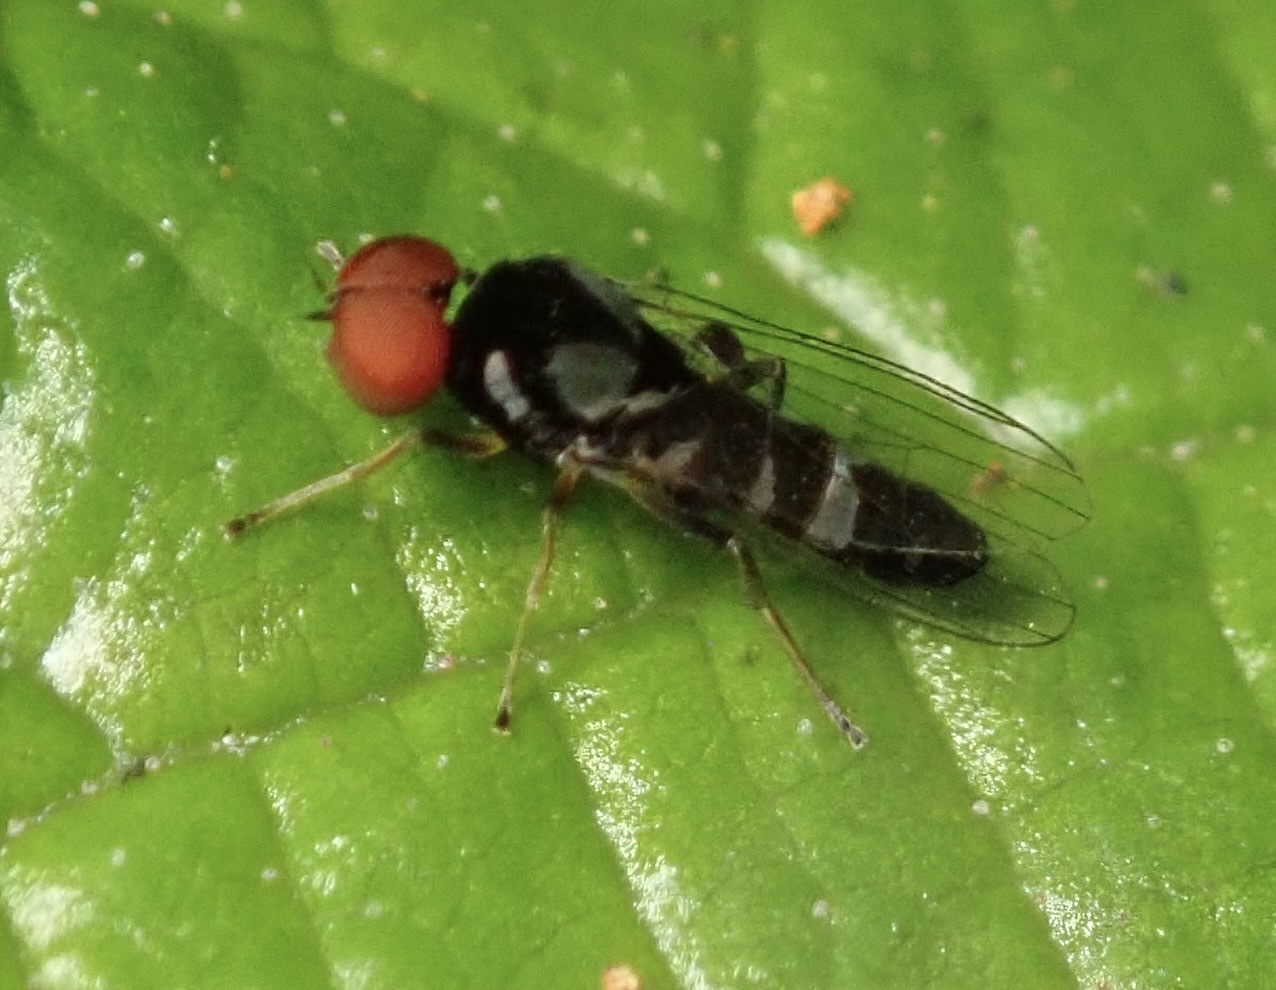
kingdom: Animalia
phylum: Arthropoda
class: Insecta
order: Diptera
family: Platypezidae
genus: Bertamyia
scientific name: Bertamyia notata
